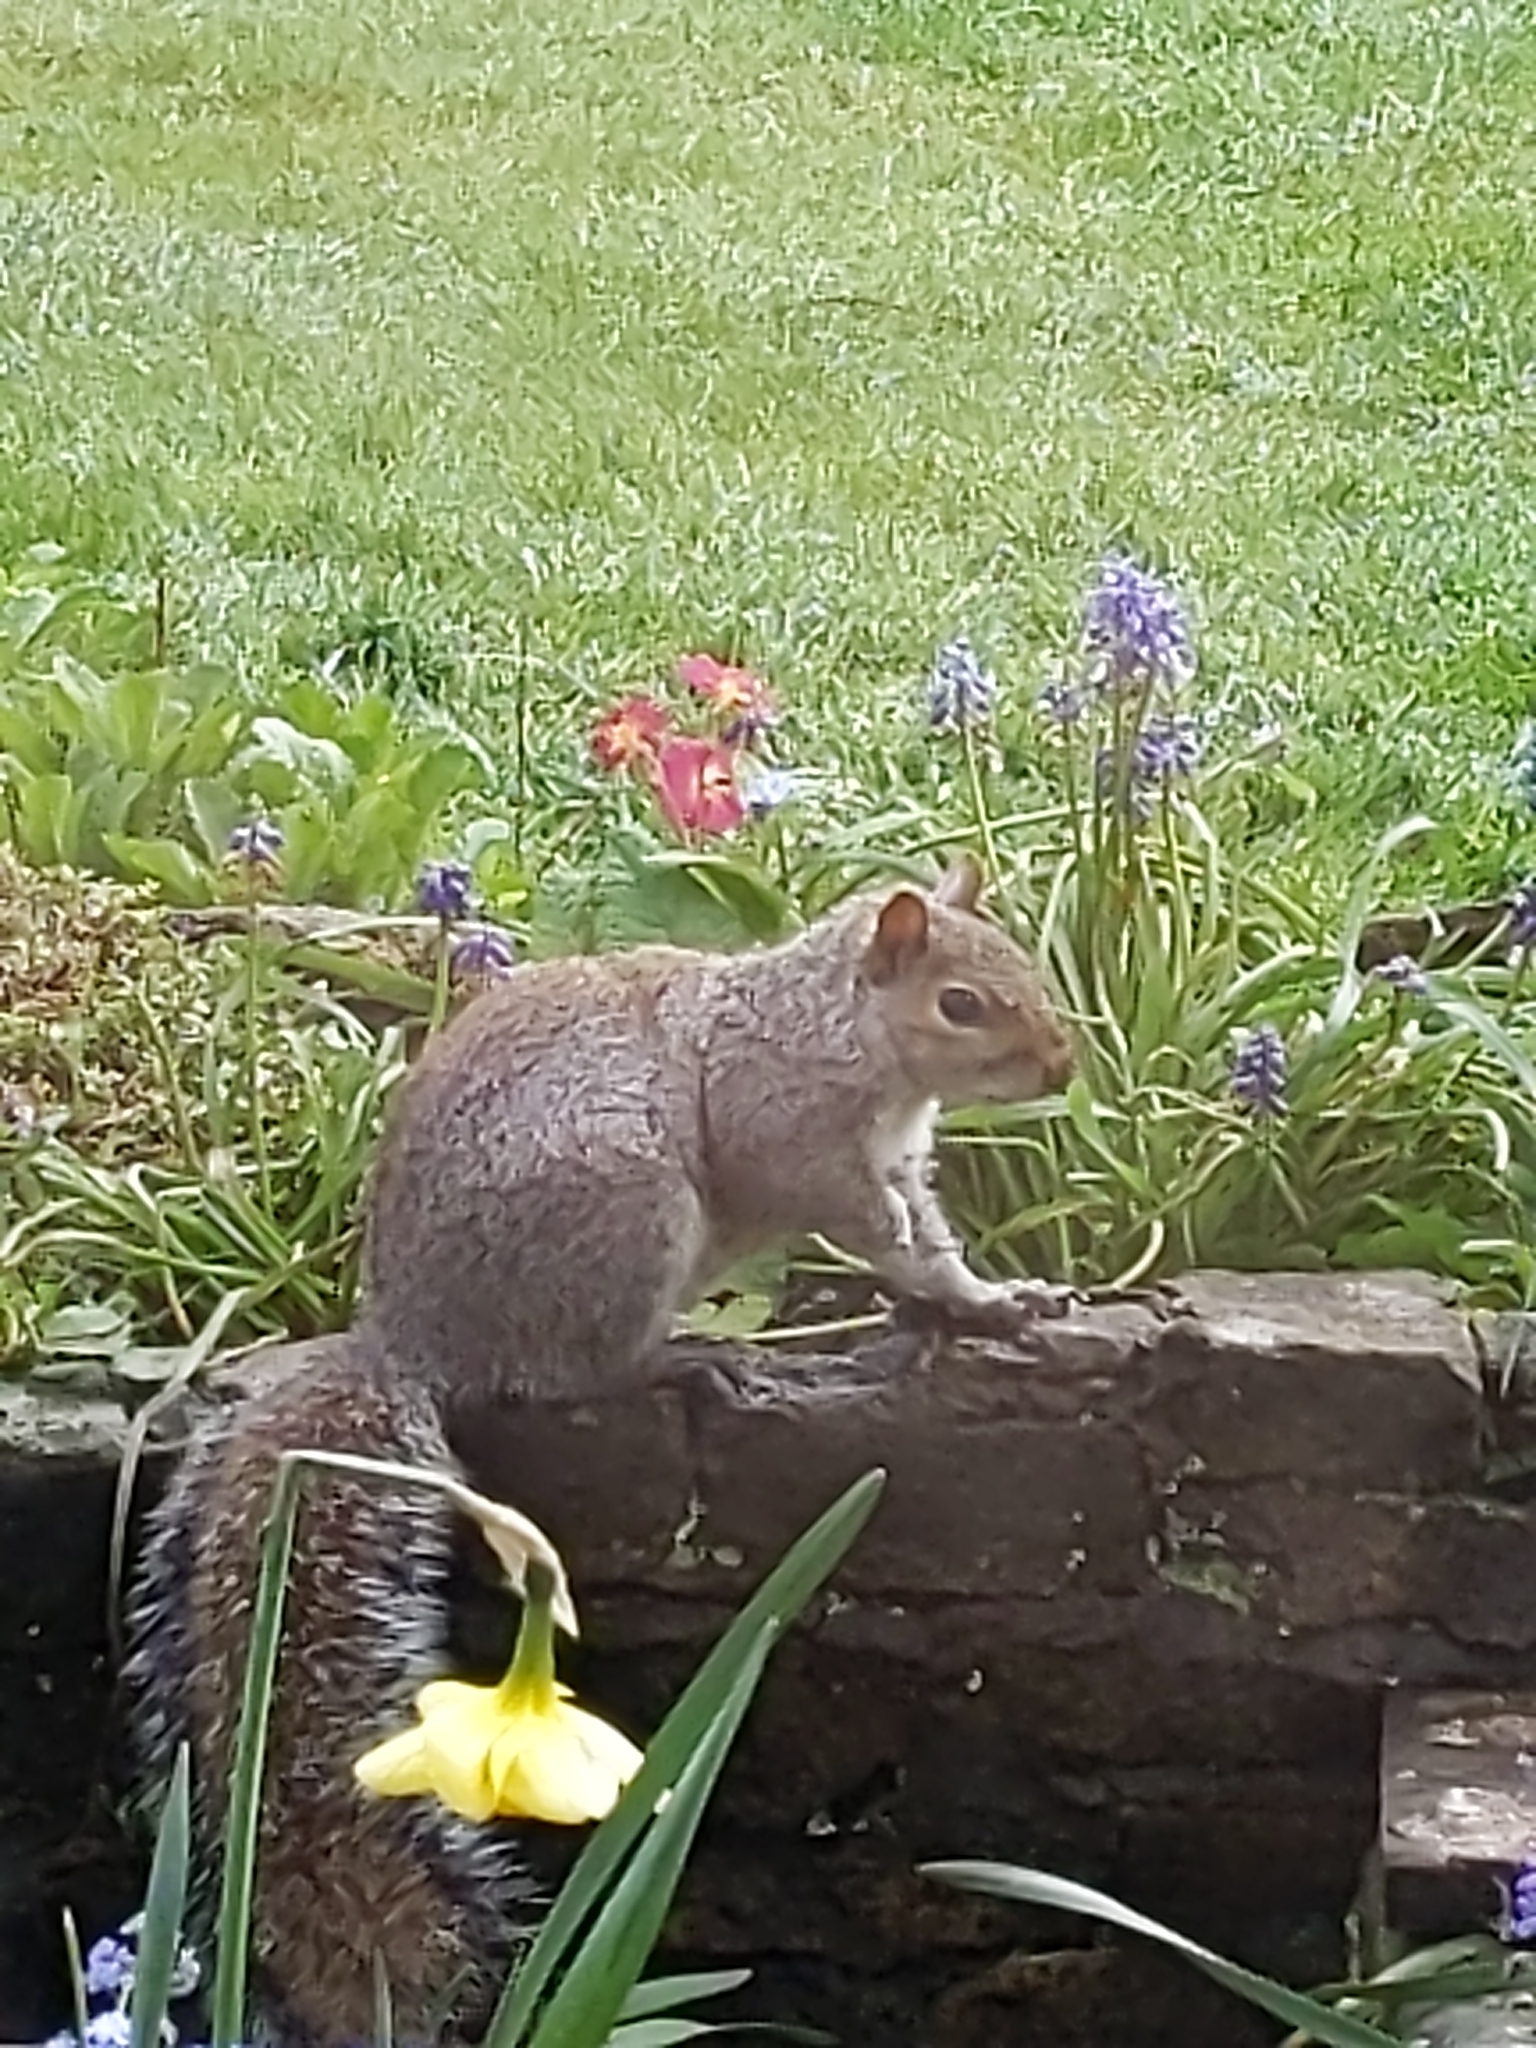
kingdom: Animalia
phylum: Chordata
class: Mammalia
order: Rodentia
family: Sciuridae
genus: Sciurus
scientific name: Sciurus carolinensis
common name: Eastern gray squirrel
